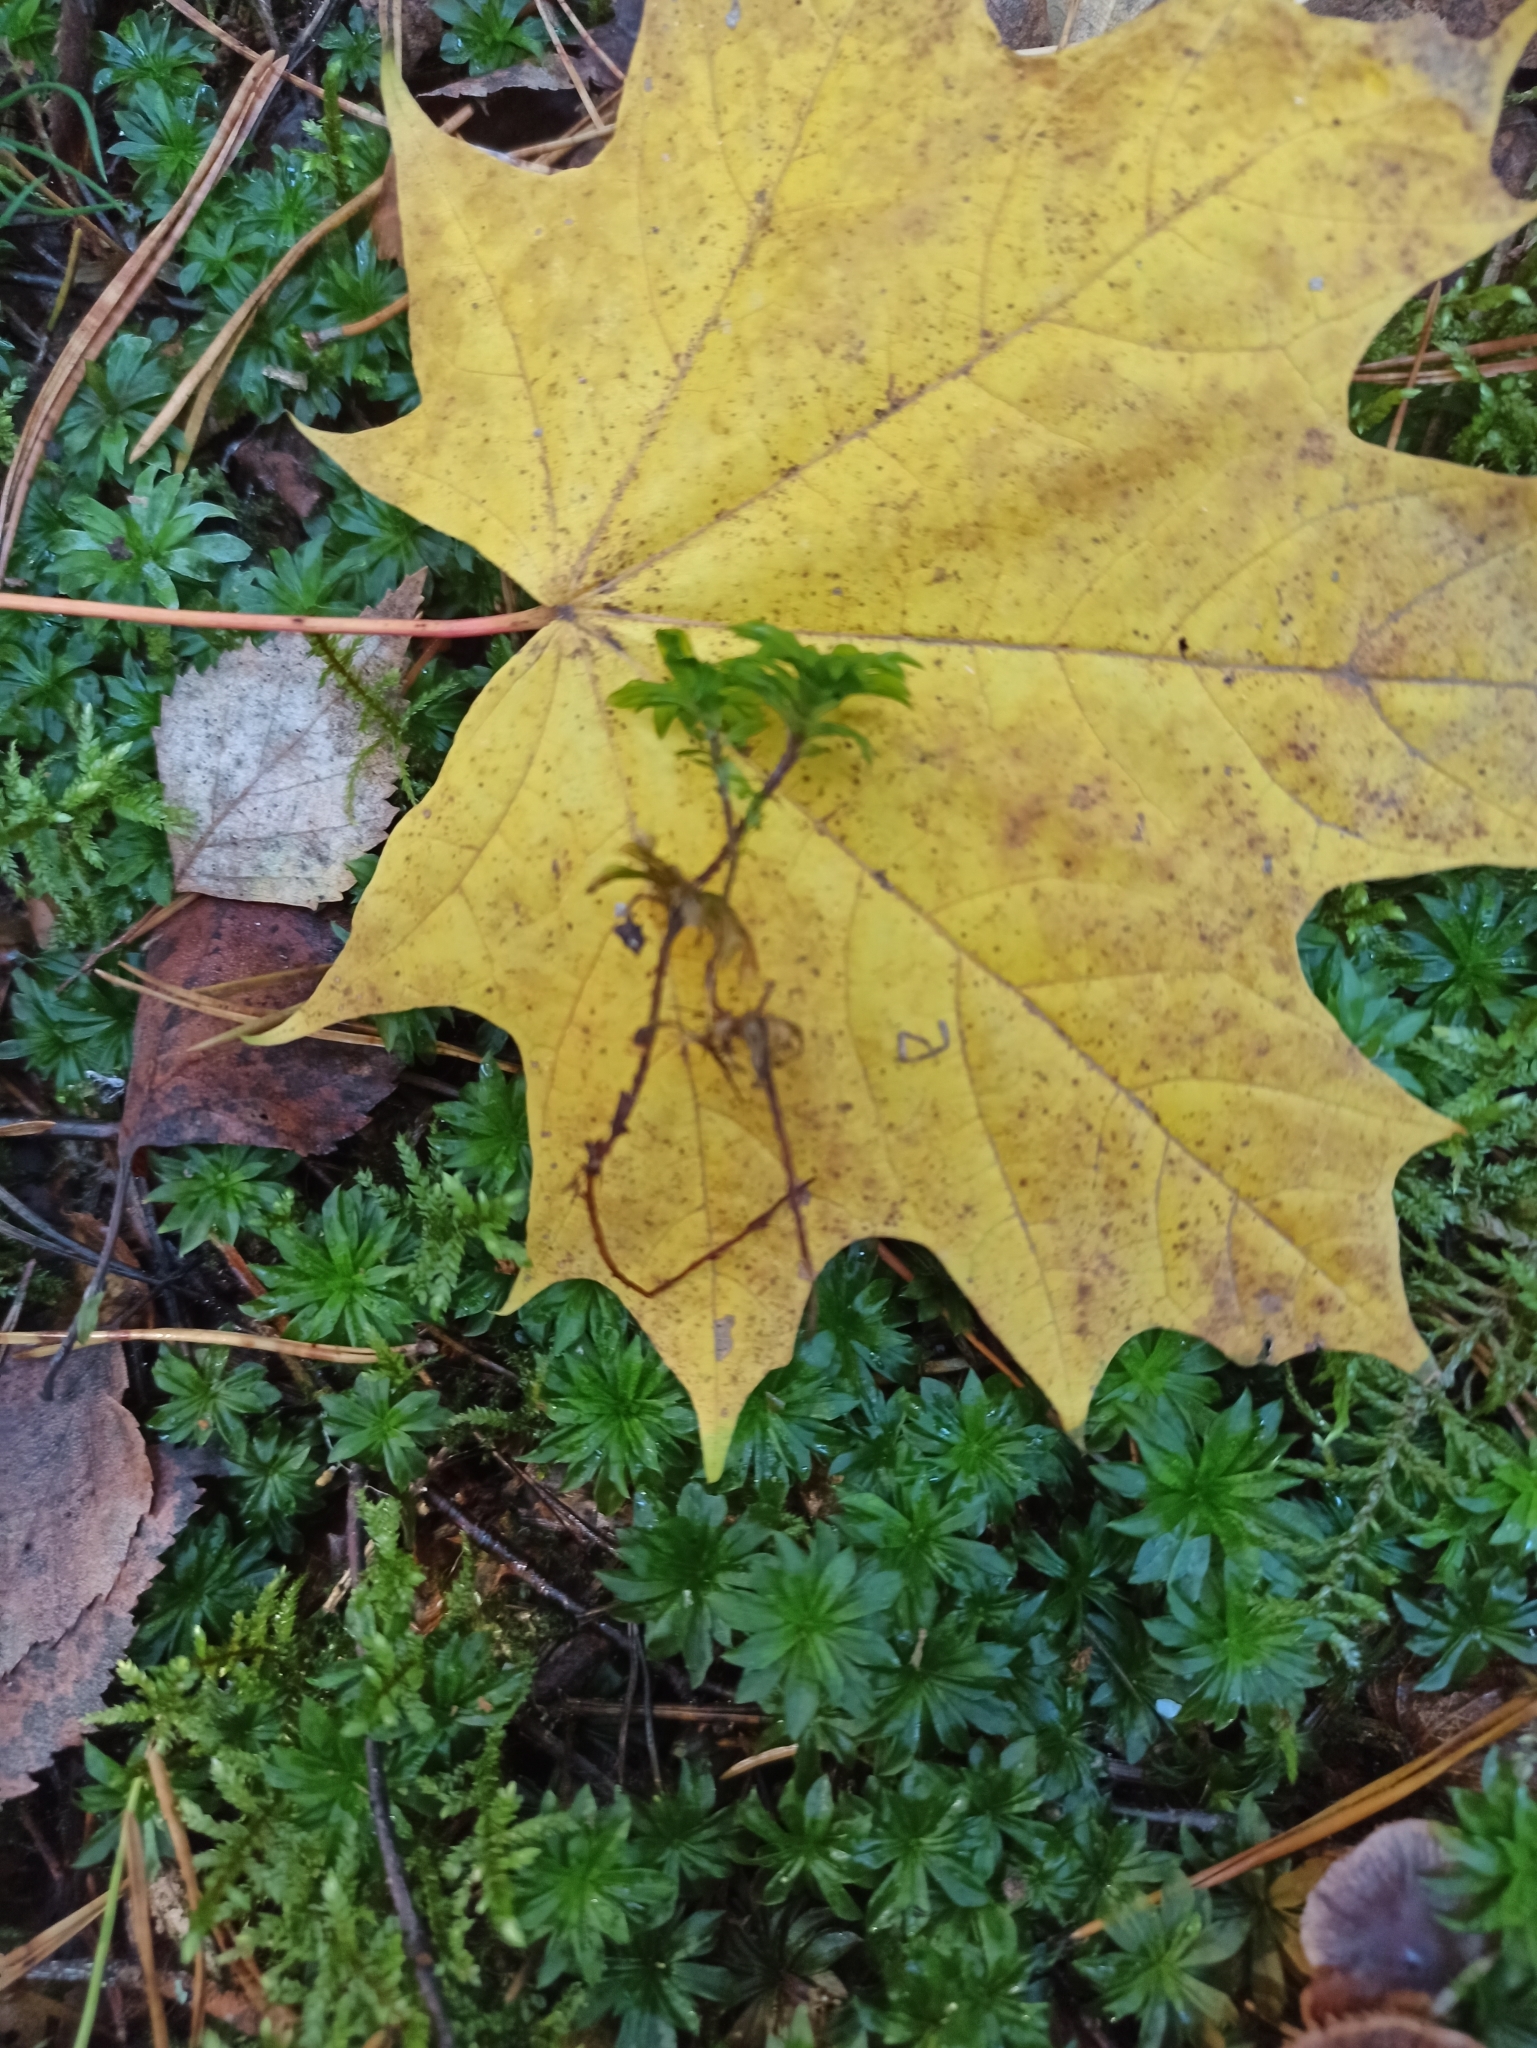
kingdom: Plantae
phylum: Bryophyta
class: Bryopsida
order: Bryales
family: Bryaceae
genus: Rhodobryum
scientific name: Rhodobryum roseum
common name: Rose-moss
